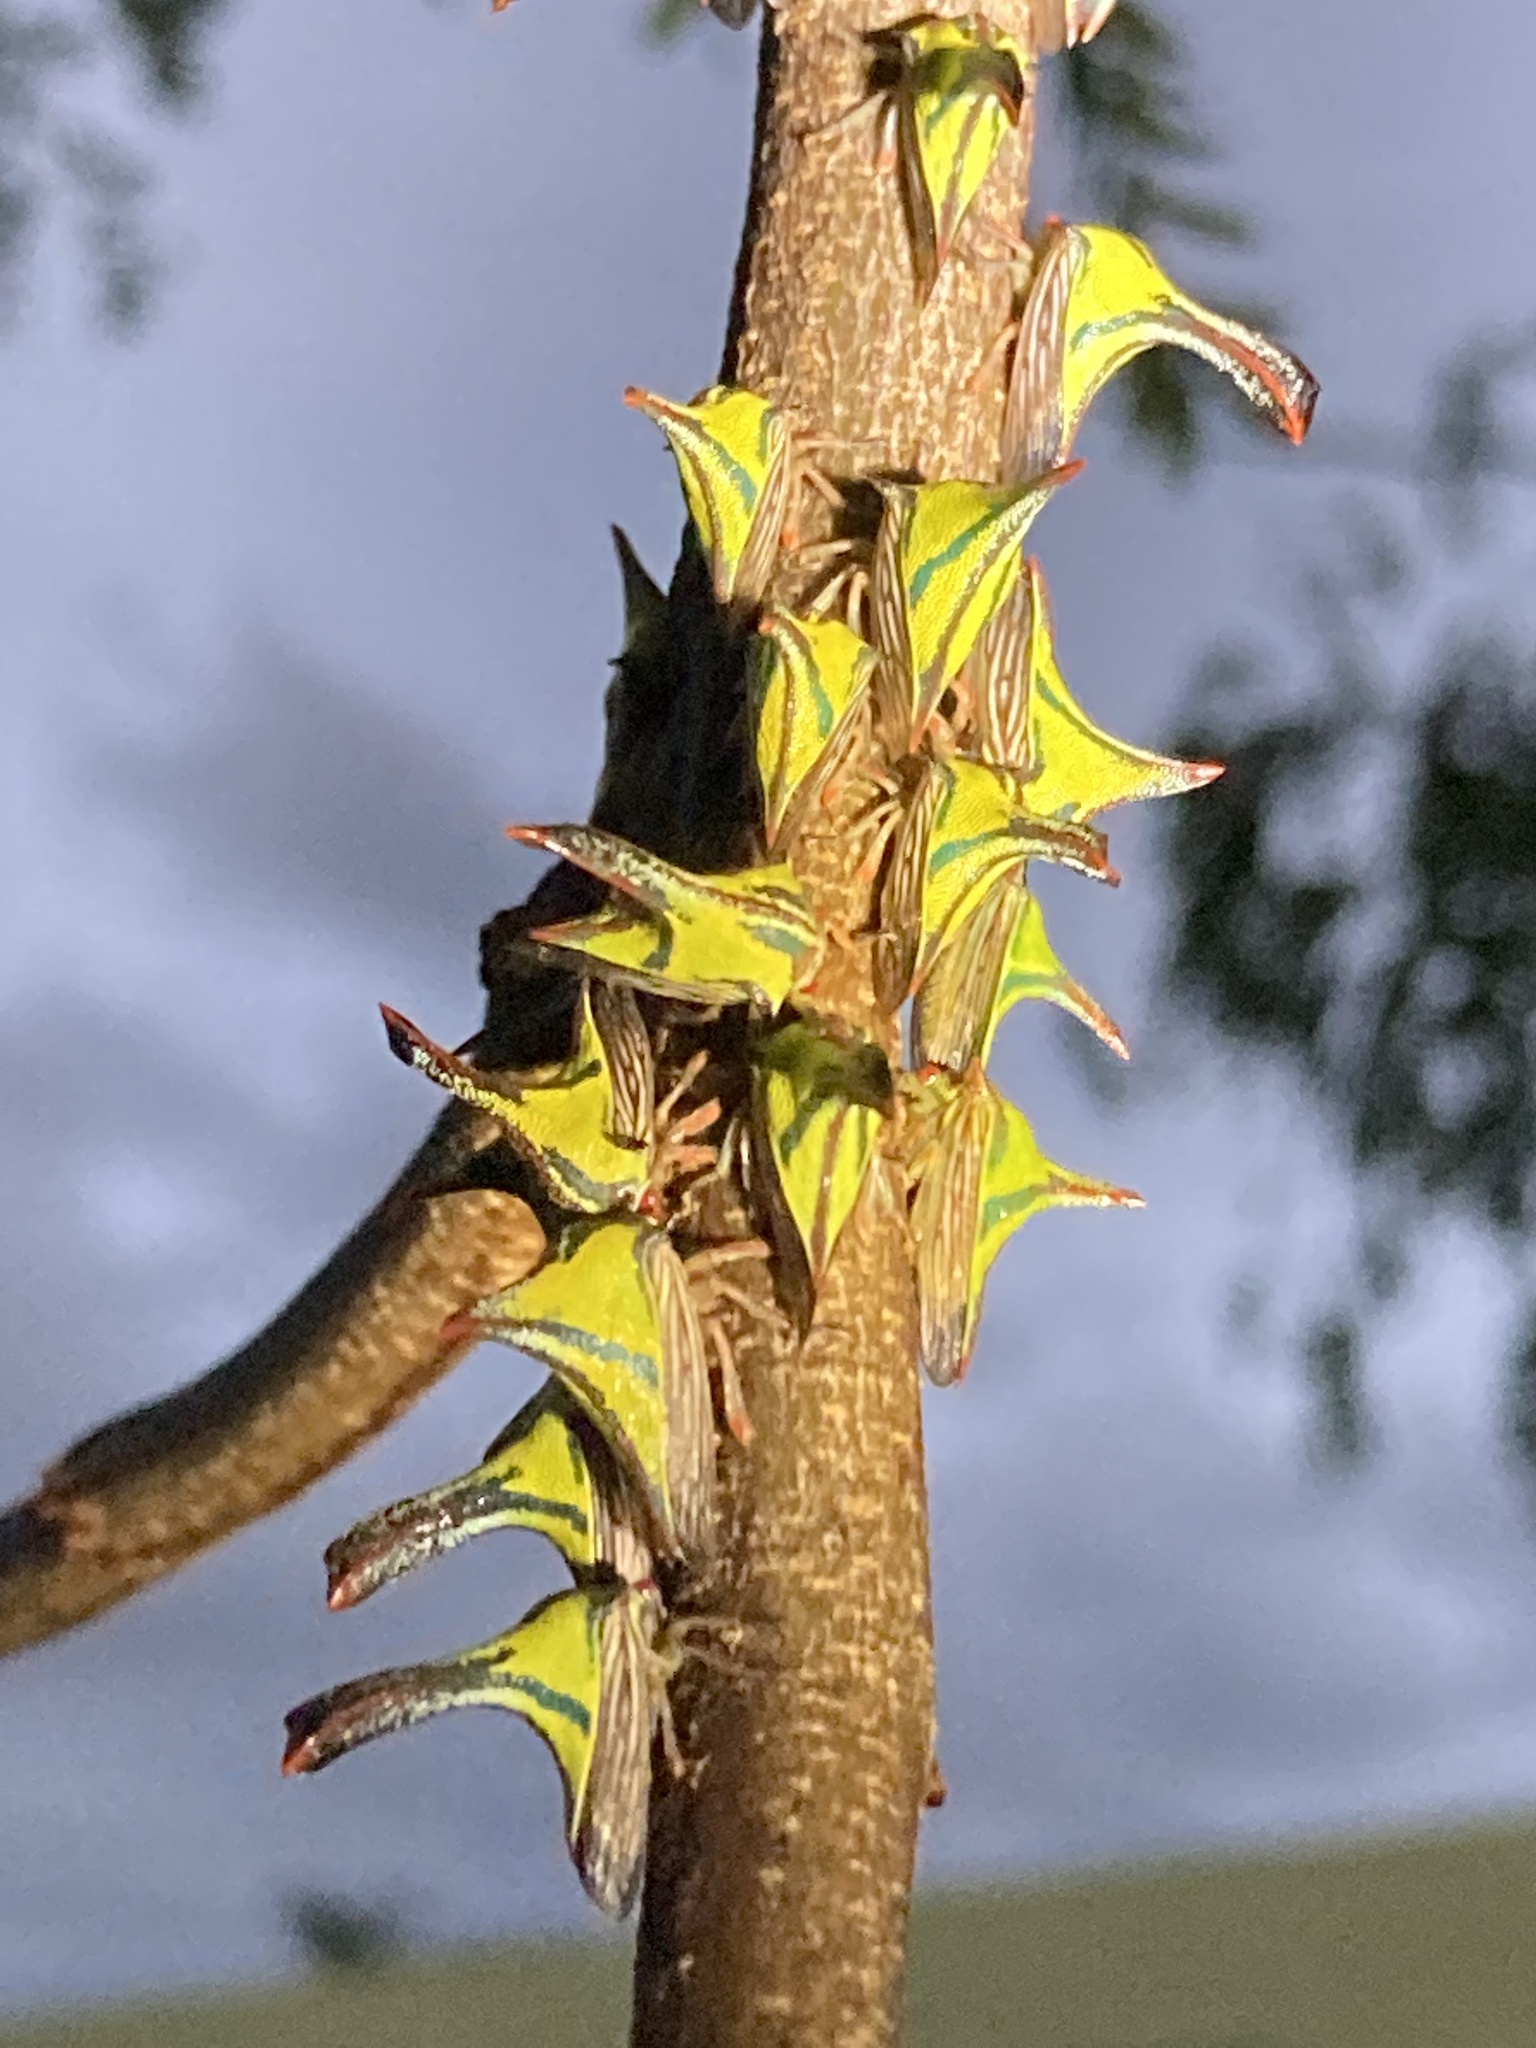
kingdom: Animalia
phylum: Arthropoda
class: Insecta
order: Hemiptera
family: Membracidae
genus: Umbonia
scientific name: Umbonia crassicornis
